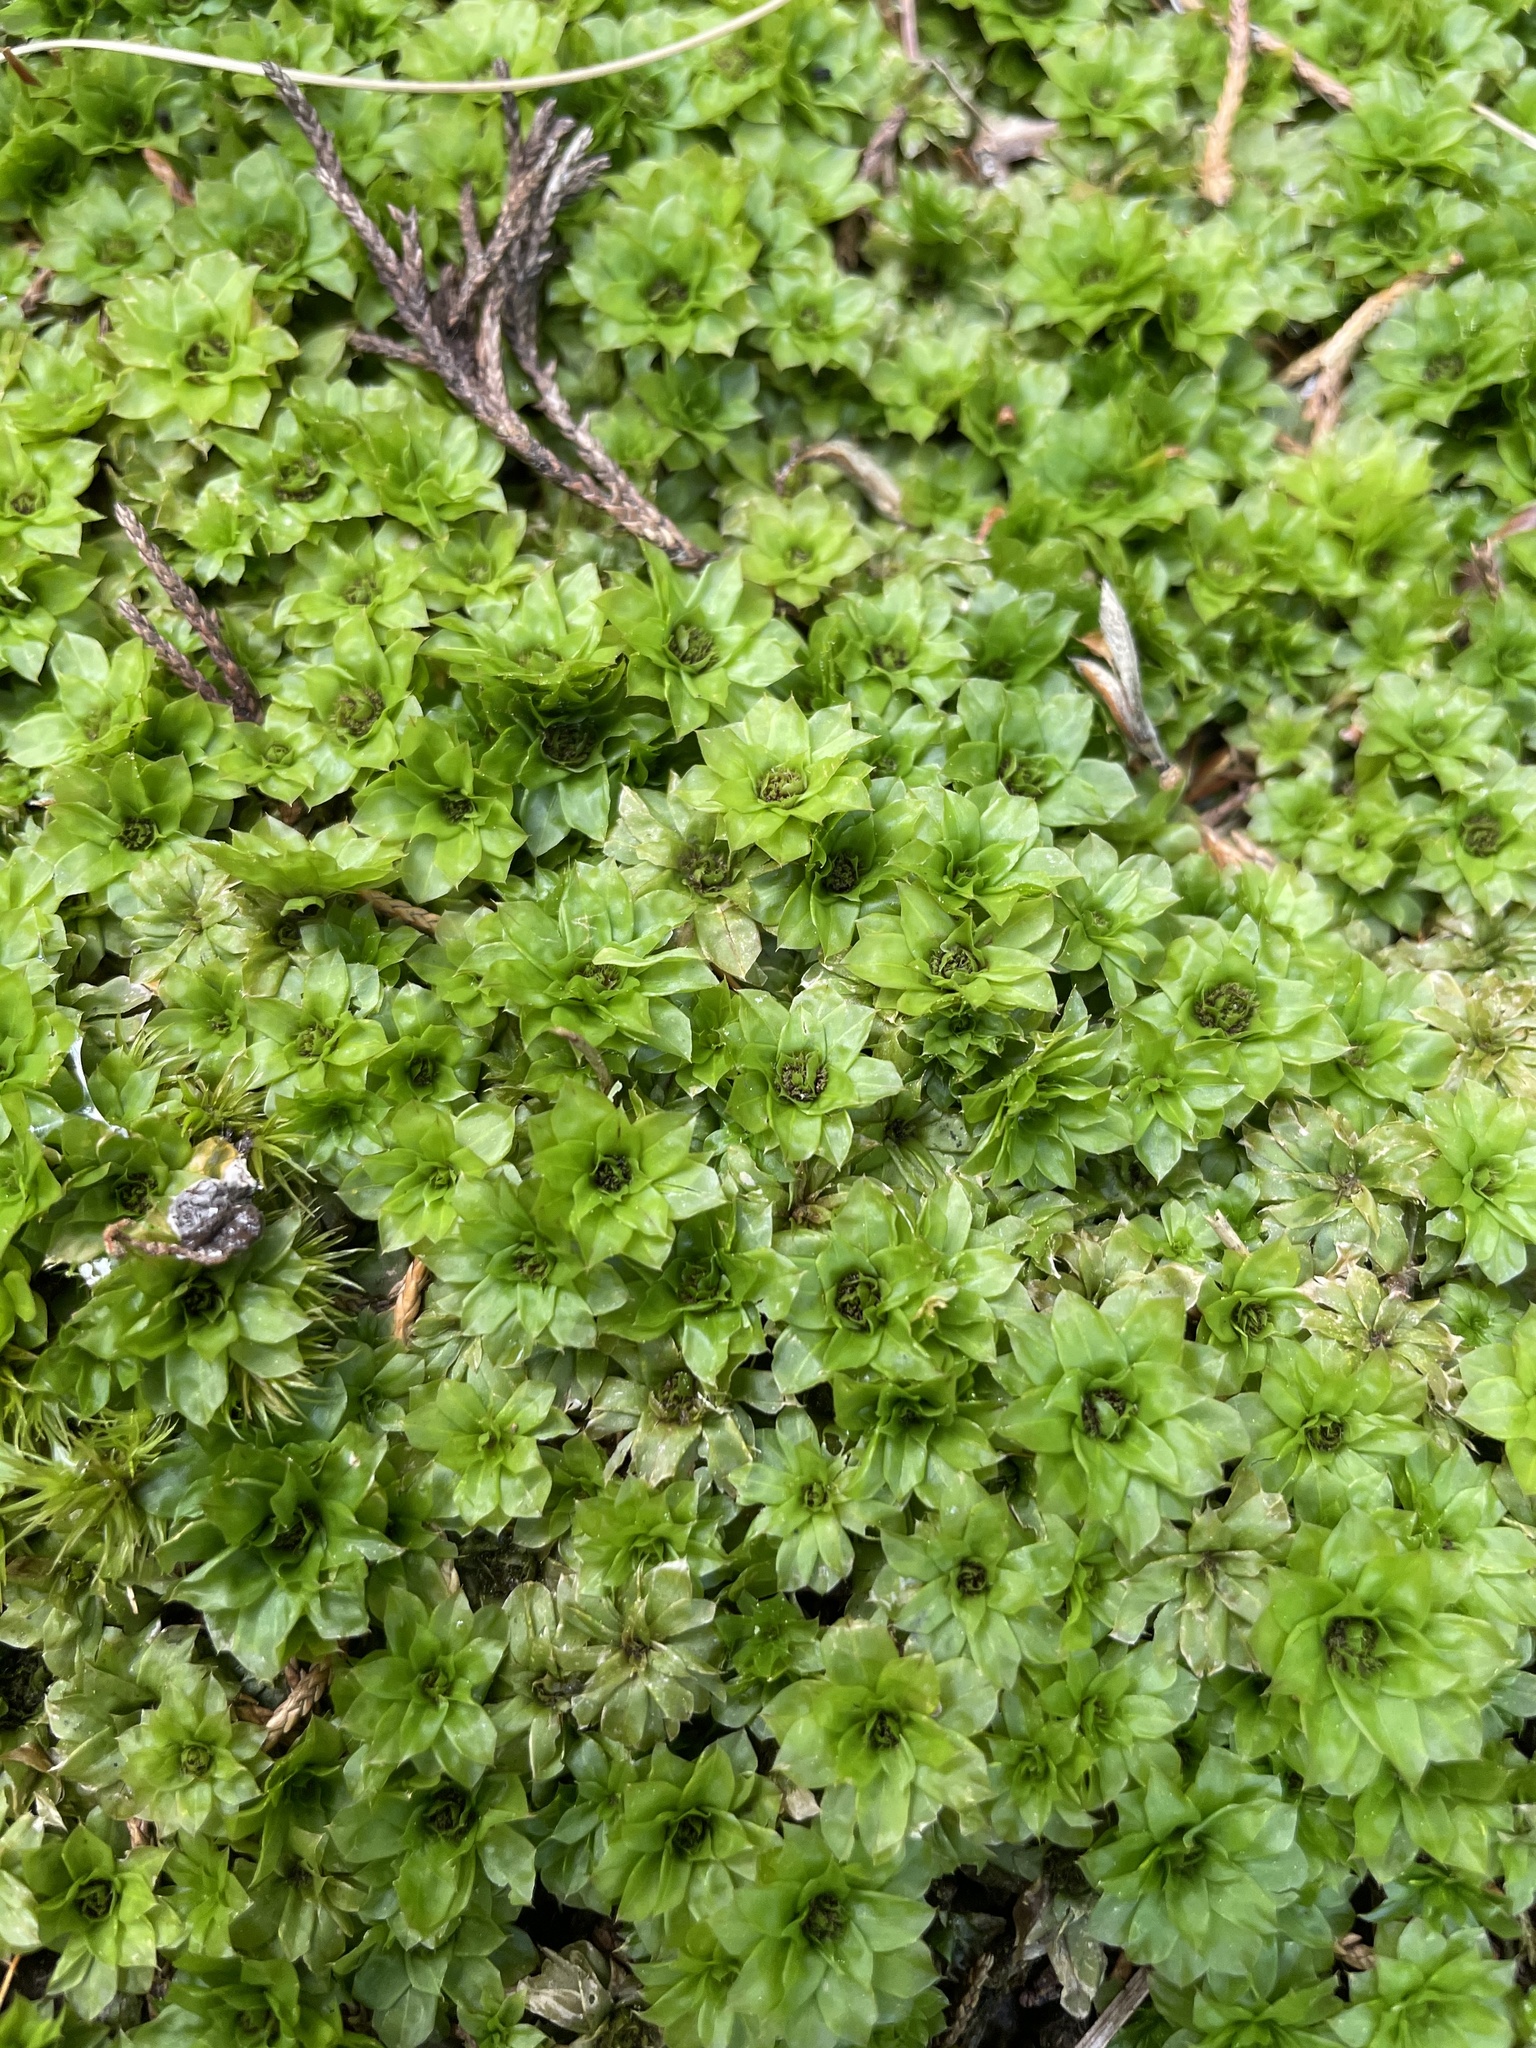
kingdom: Plantae
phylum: Bryophyta
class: Bryopsida
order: Bryales
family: Bryaceae
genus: Rhodobryum
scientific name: Rhodobryum ontariense
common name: Ontario rhodobryum moss
